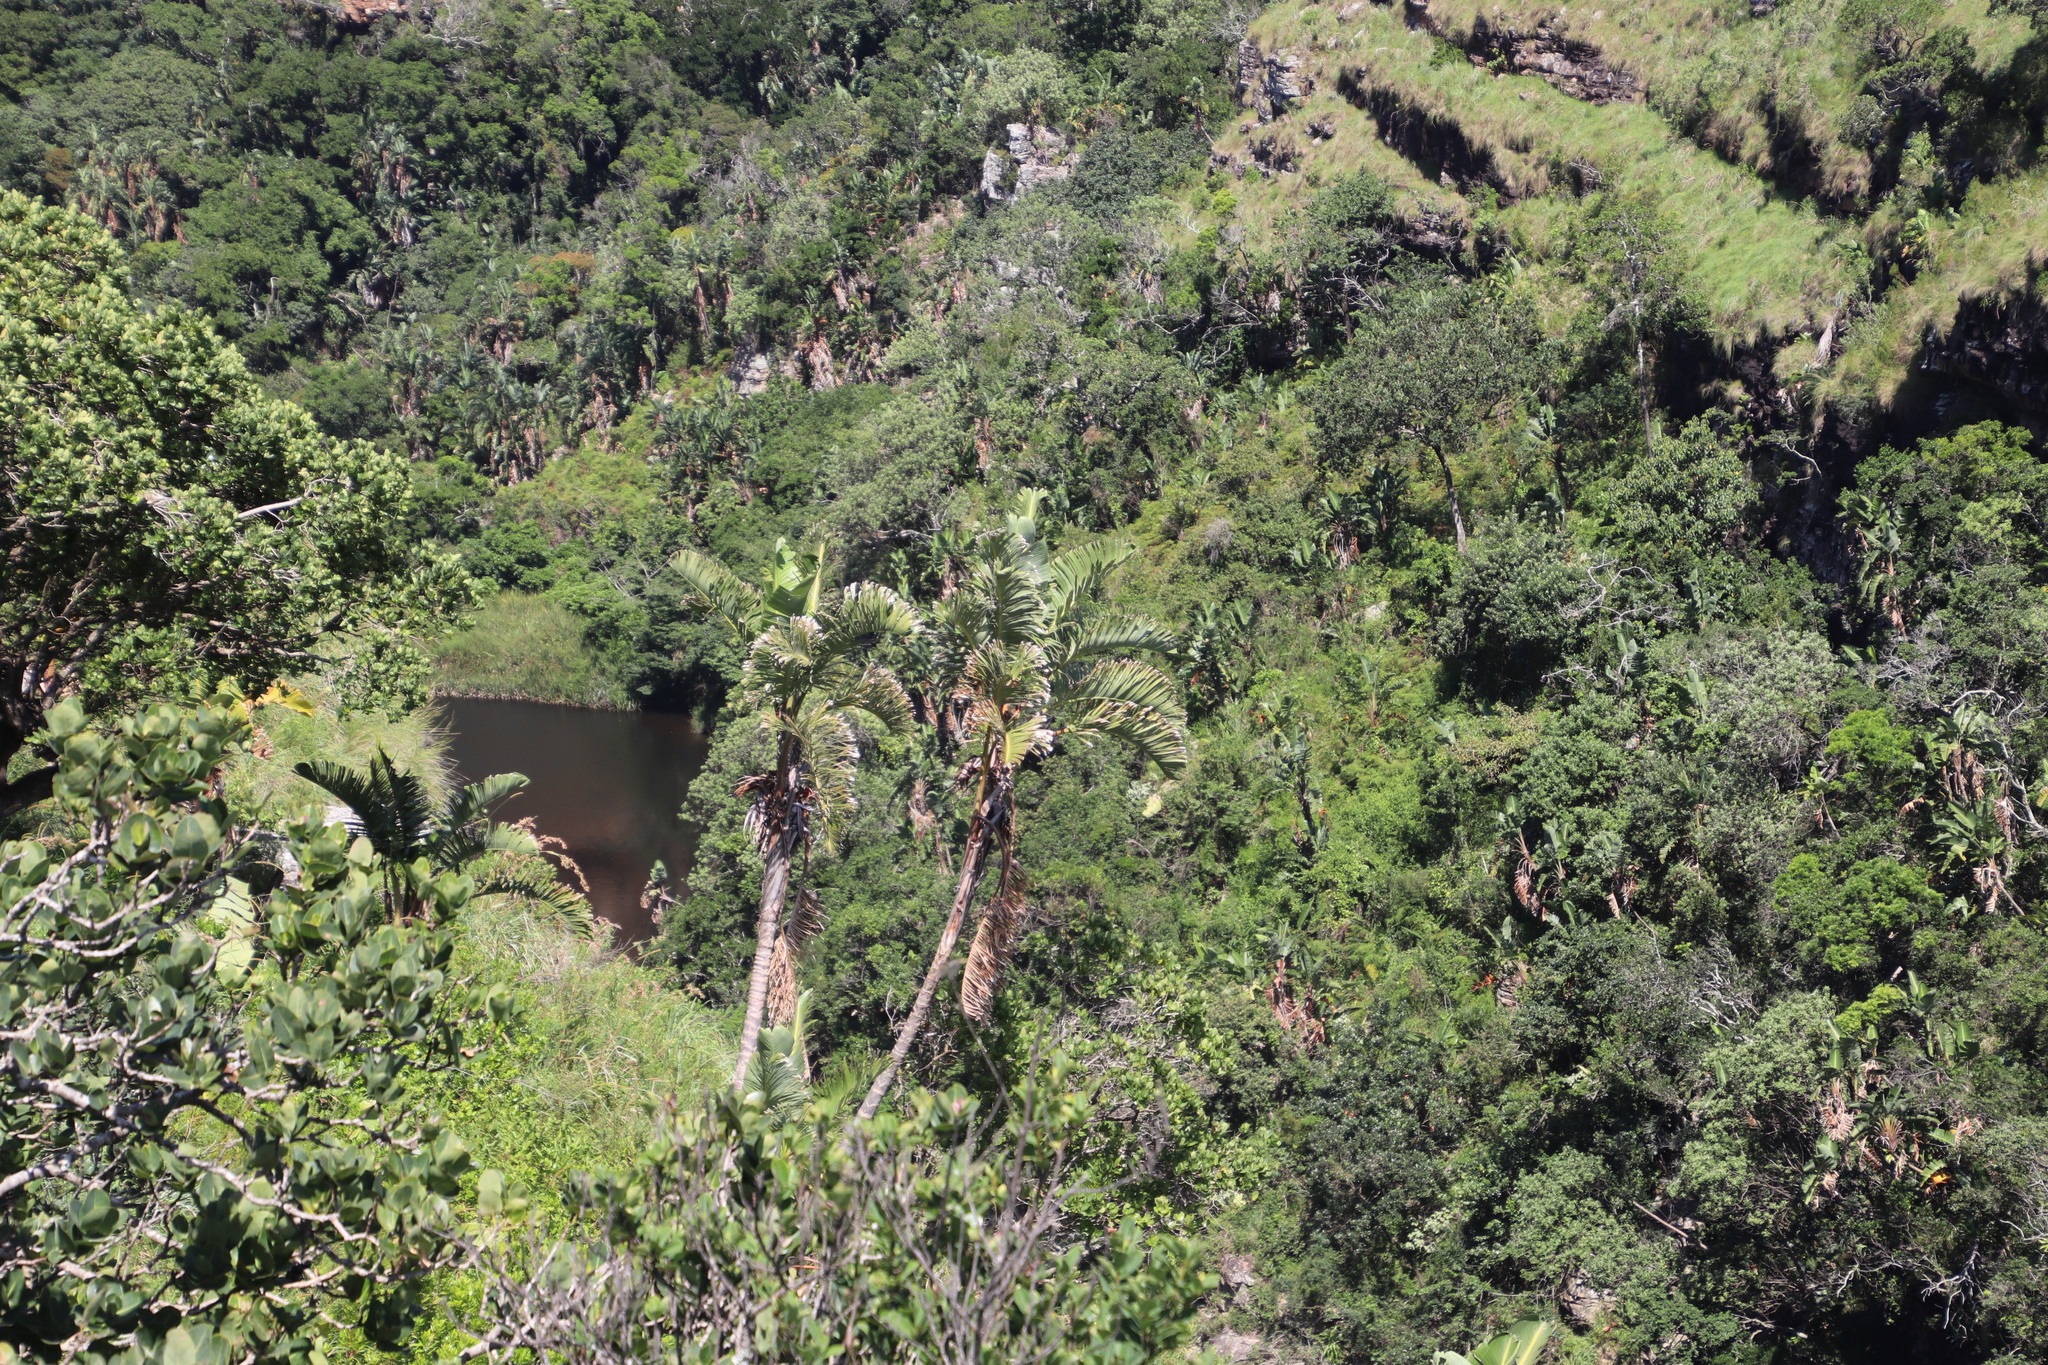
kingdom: Plantae
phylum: Tracheophyta
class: Liliopsida
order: Poales
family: Thurniaceae
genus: Prionium
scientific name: Prionium serratum
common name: Palmiet
